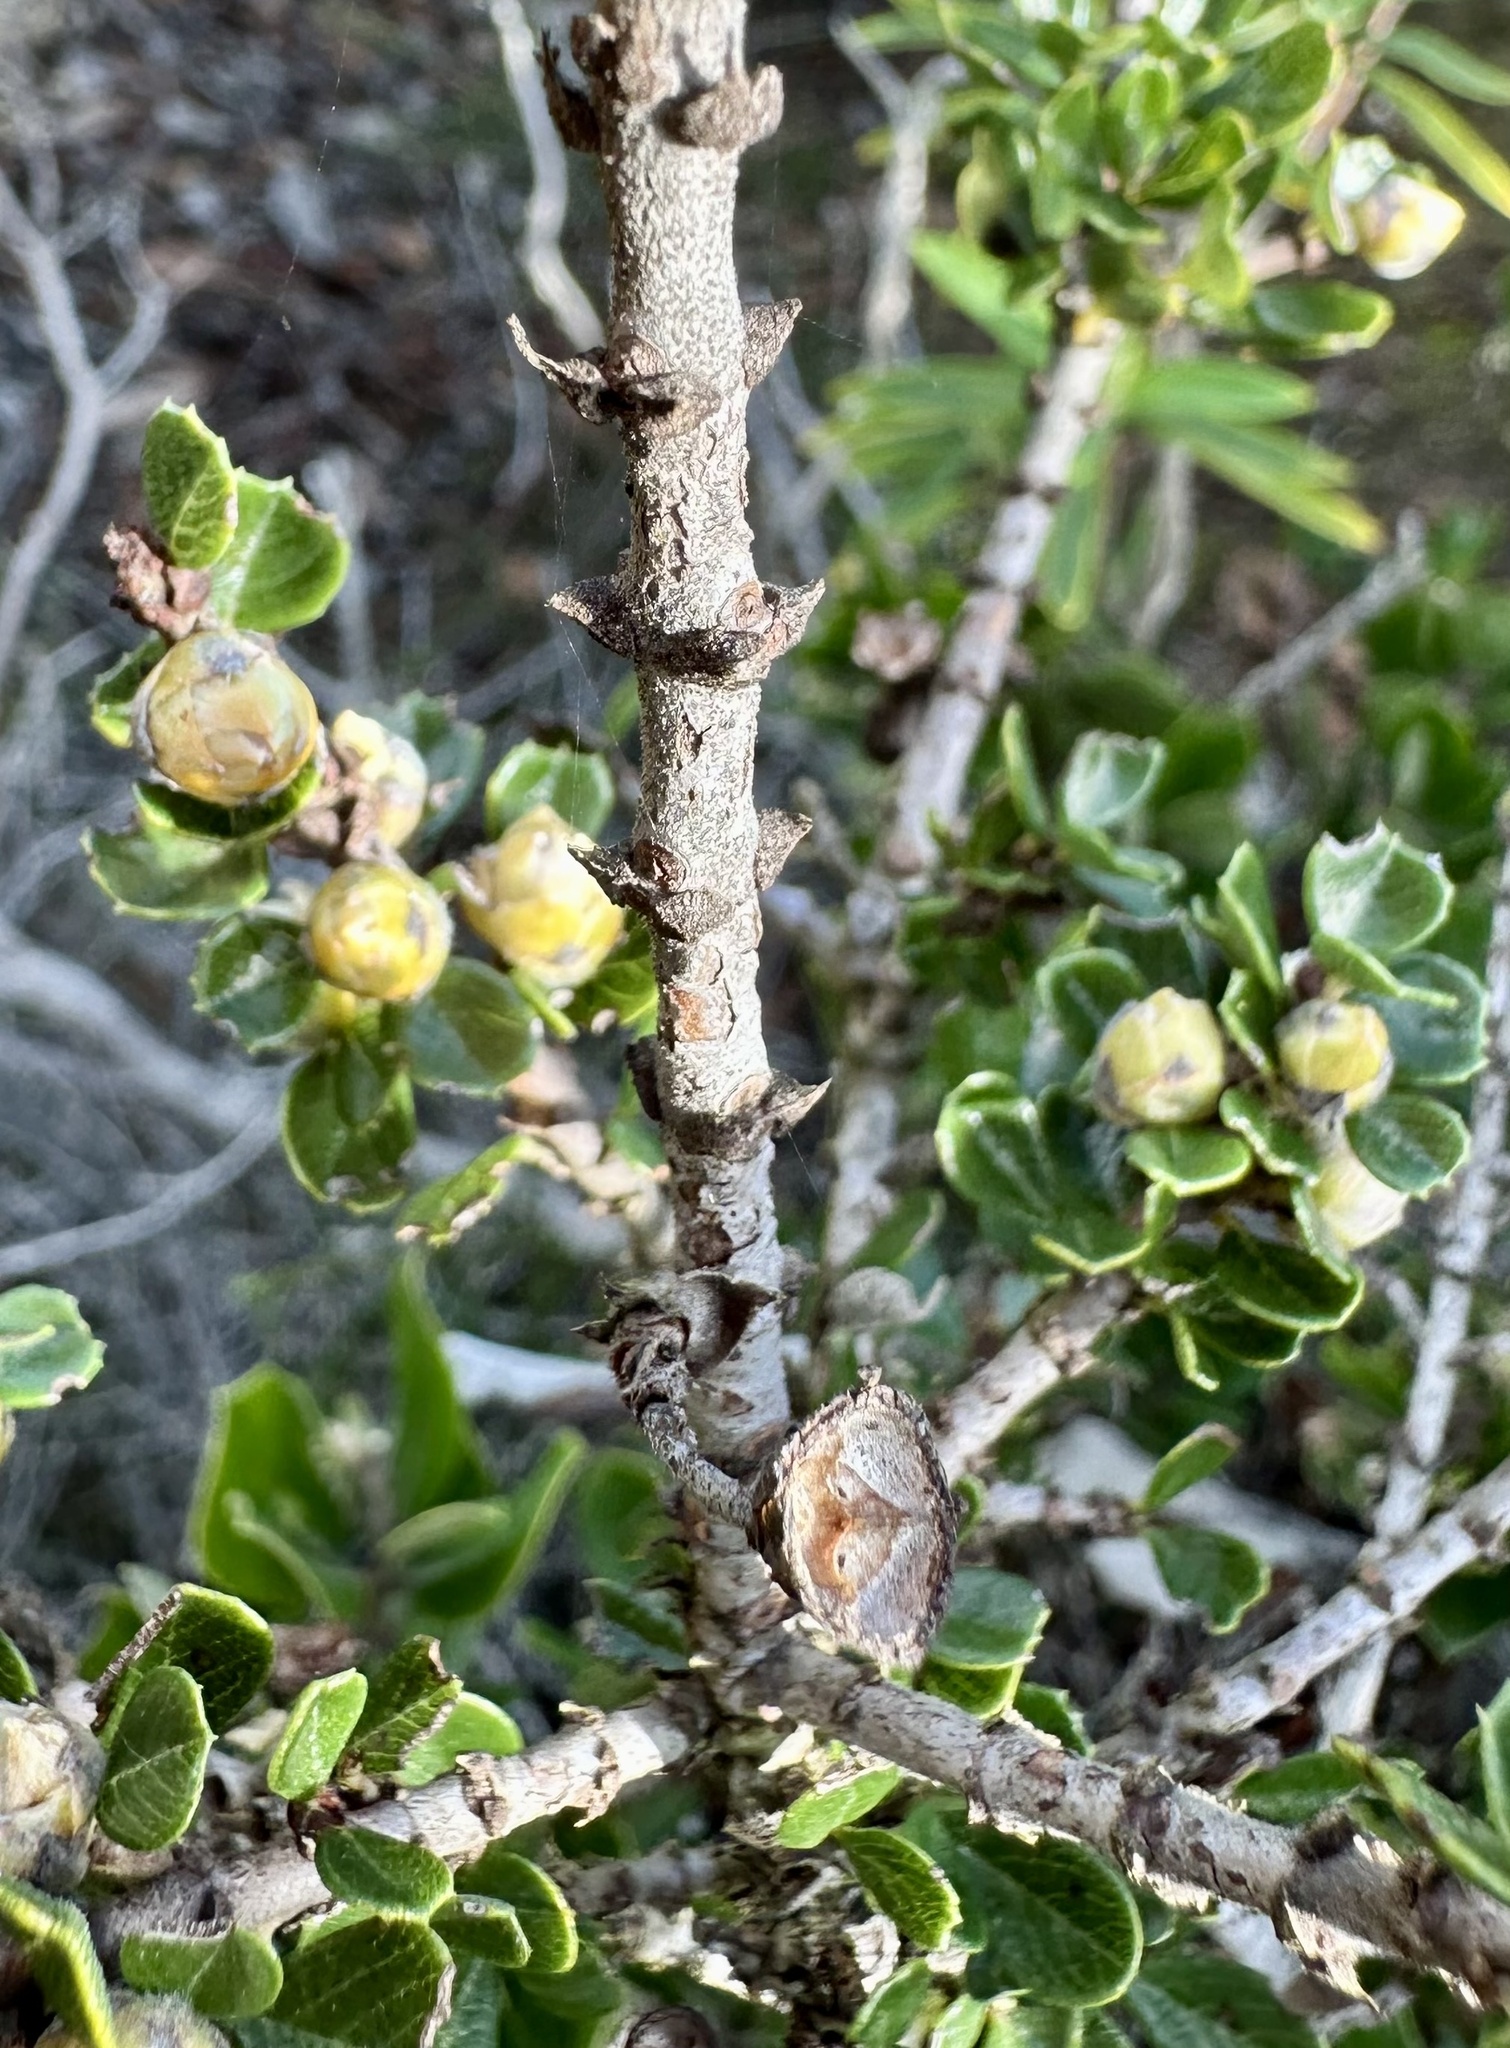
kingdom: Plantae
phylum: Tracheophyta
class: Magnoliopsida
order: Rosales
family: Rhamnaceae
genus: Ceanothus
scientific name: Ceanothus cuneatus
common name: Cuneate ceanothus
